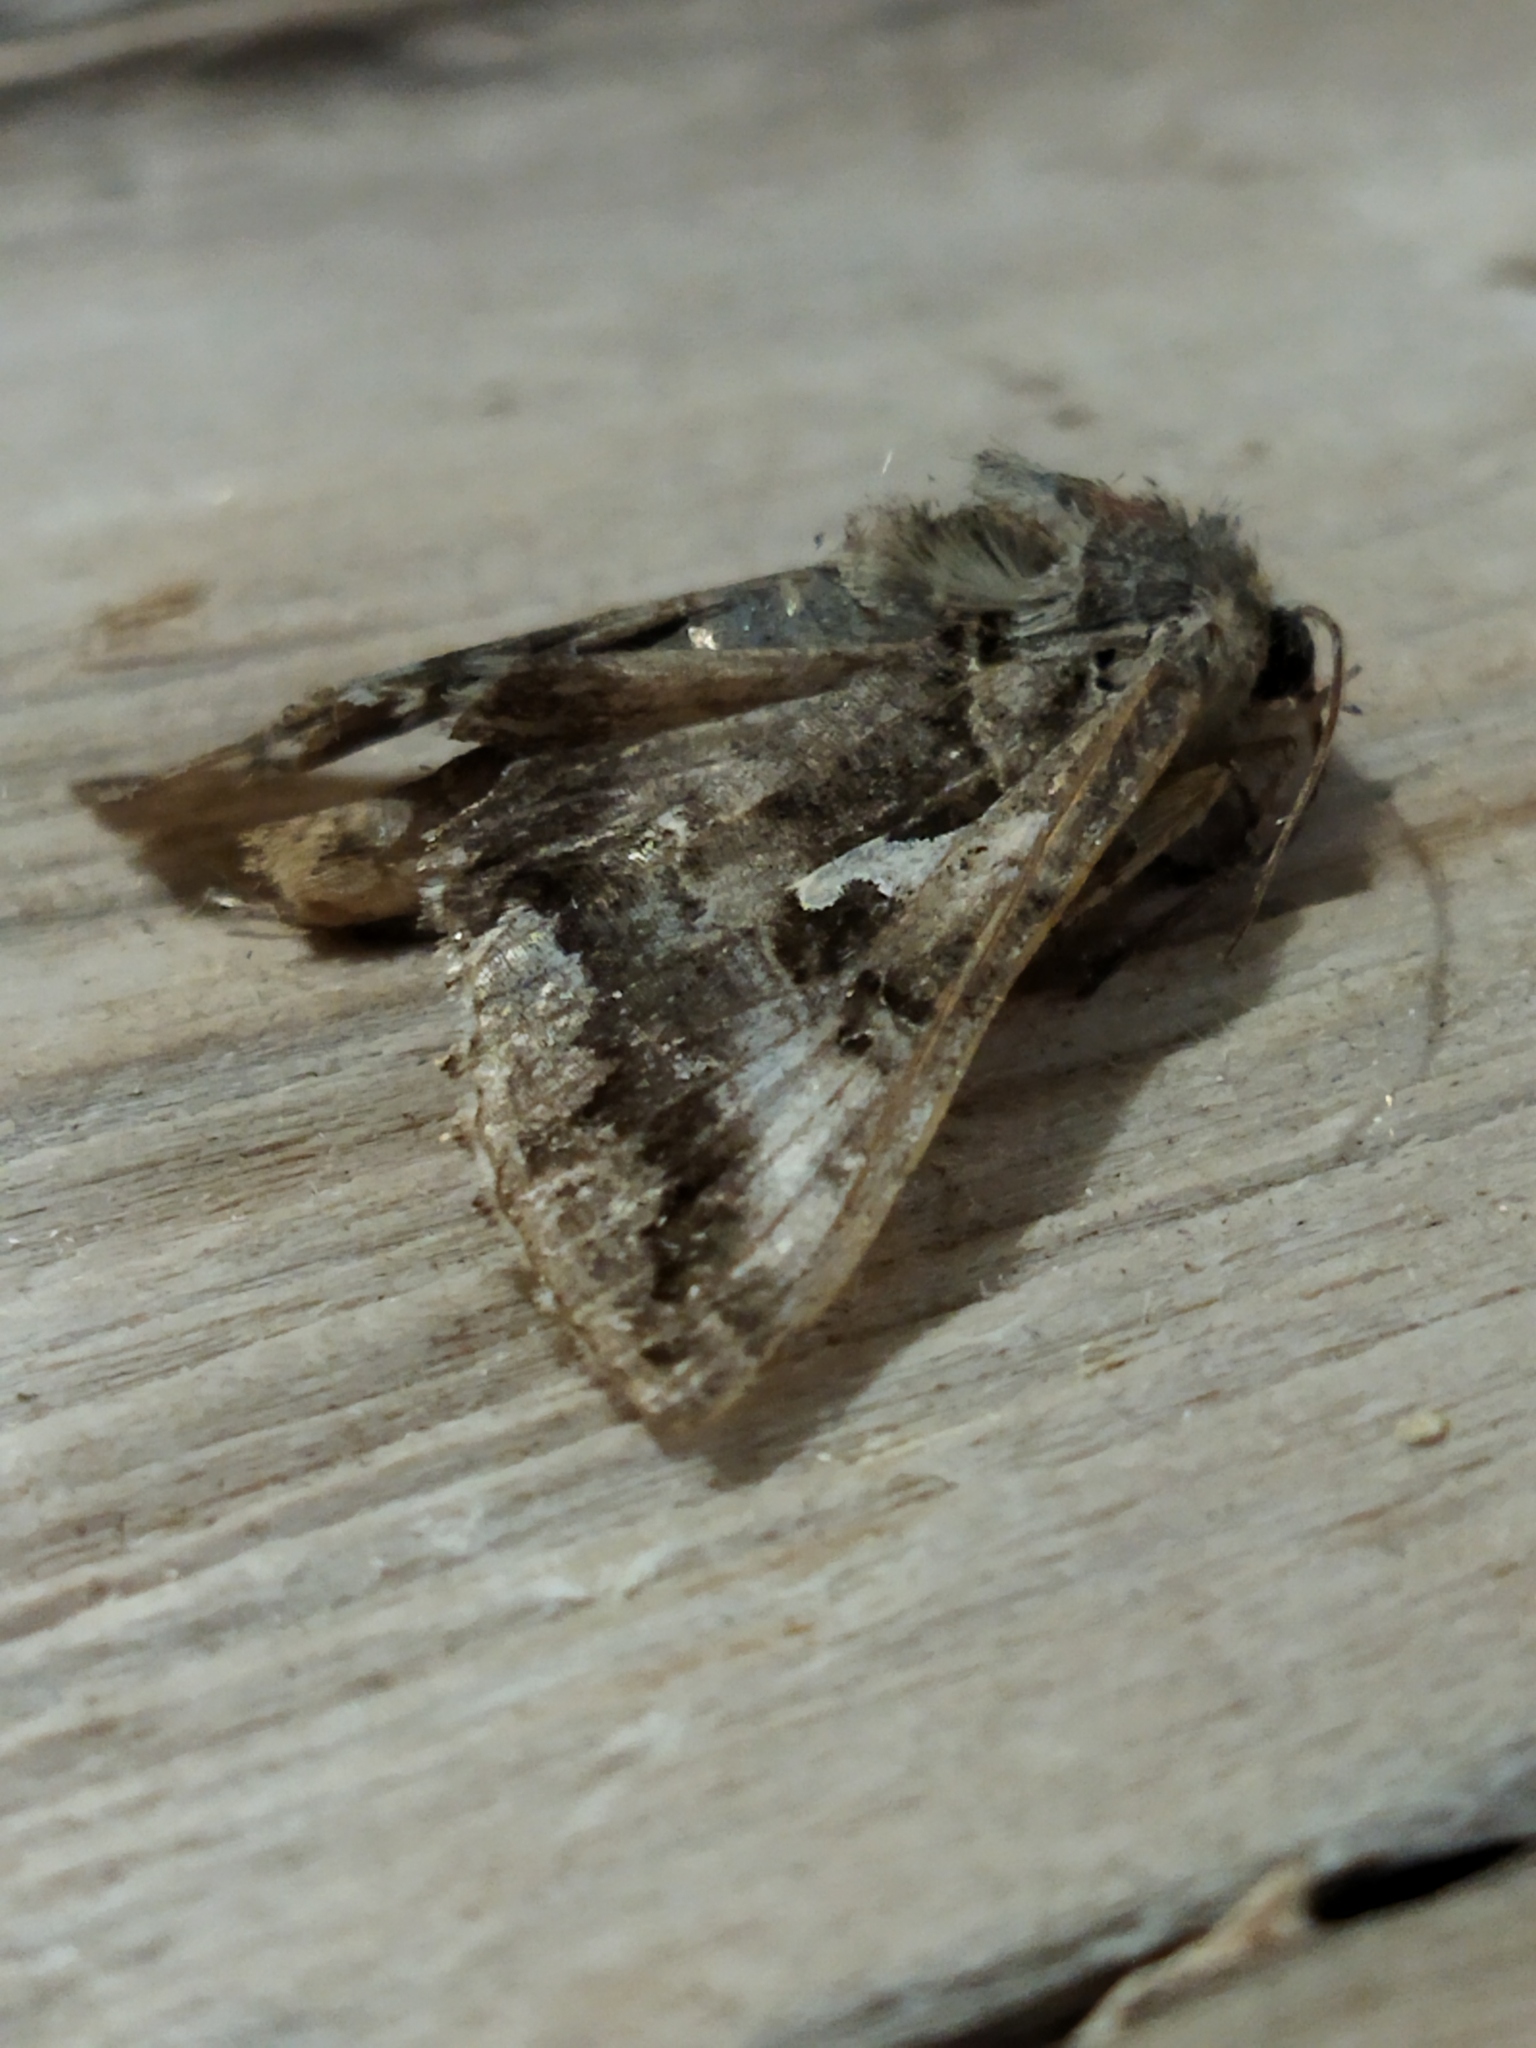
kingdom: Animalia
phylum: Arthropoda
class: Insecta
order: Lepidoptera
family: Noctuidae
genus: Autographa
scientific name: Autographa gamma
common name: Silver y
